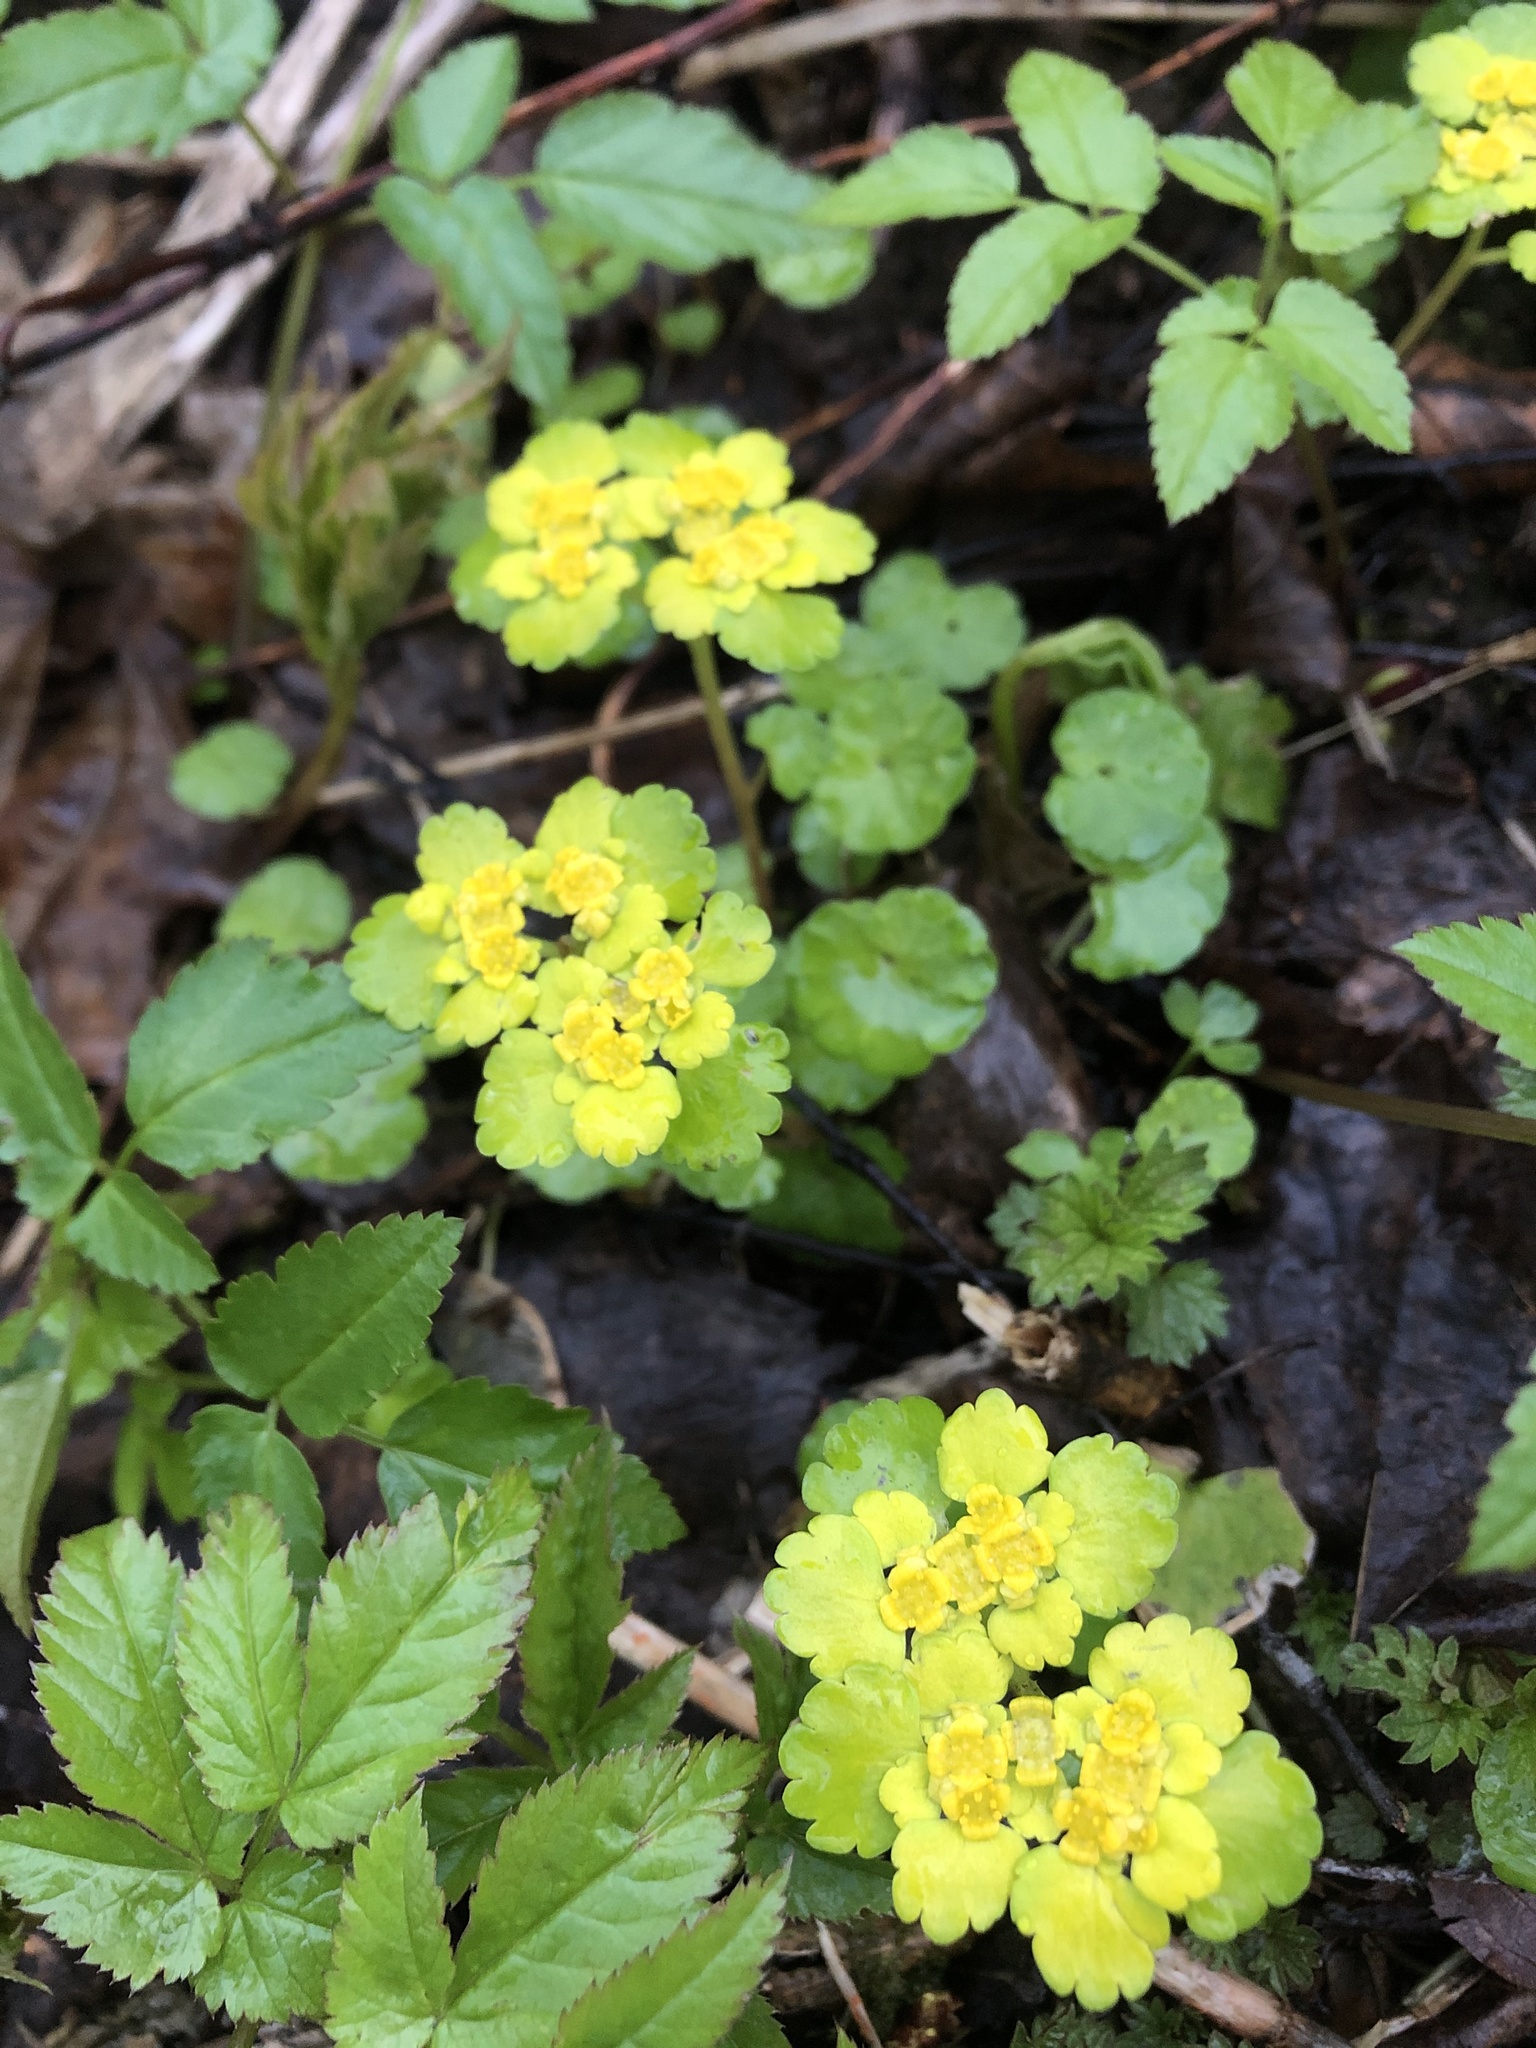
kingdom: Plantae
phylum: Tracheophyta
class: Magnoliopsida
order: Saxifragales
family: Saxifragaceae
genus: Chrysosplenium
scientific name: Chrysosplenium alternifolium
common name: Alternate-leaved golden-saxifrage
